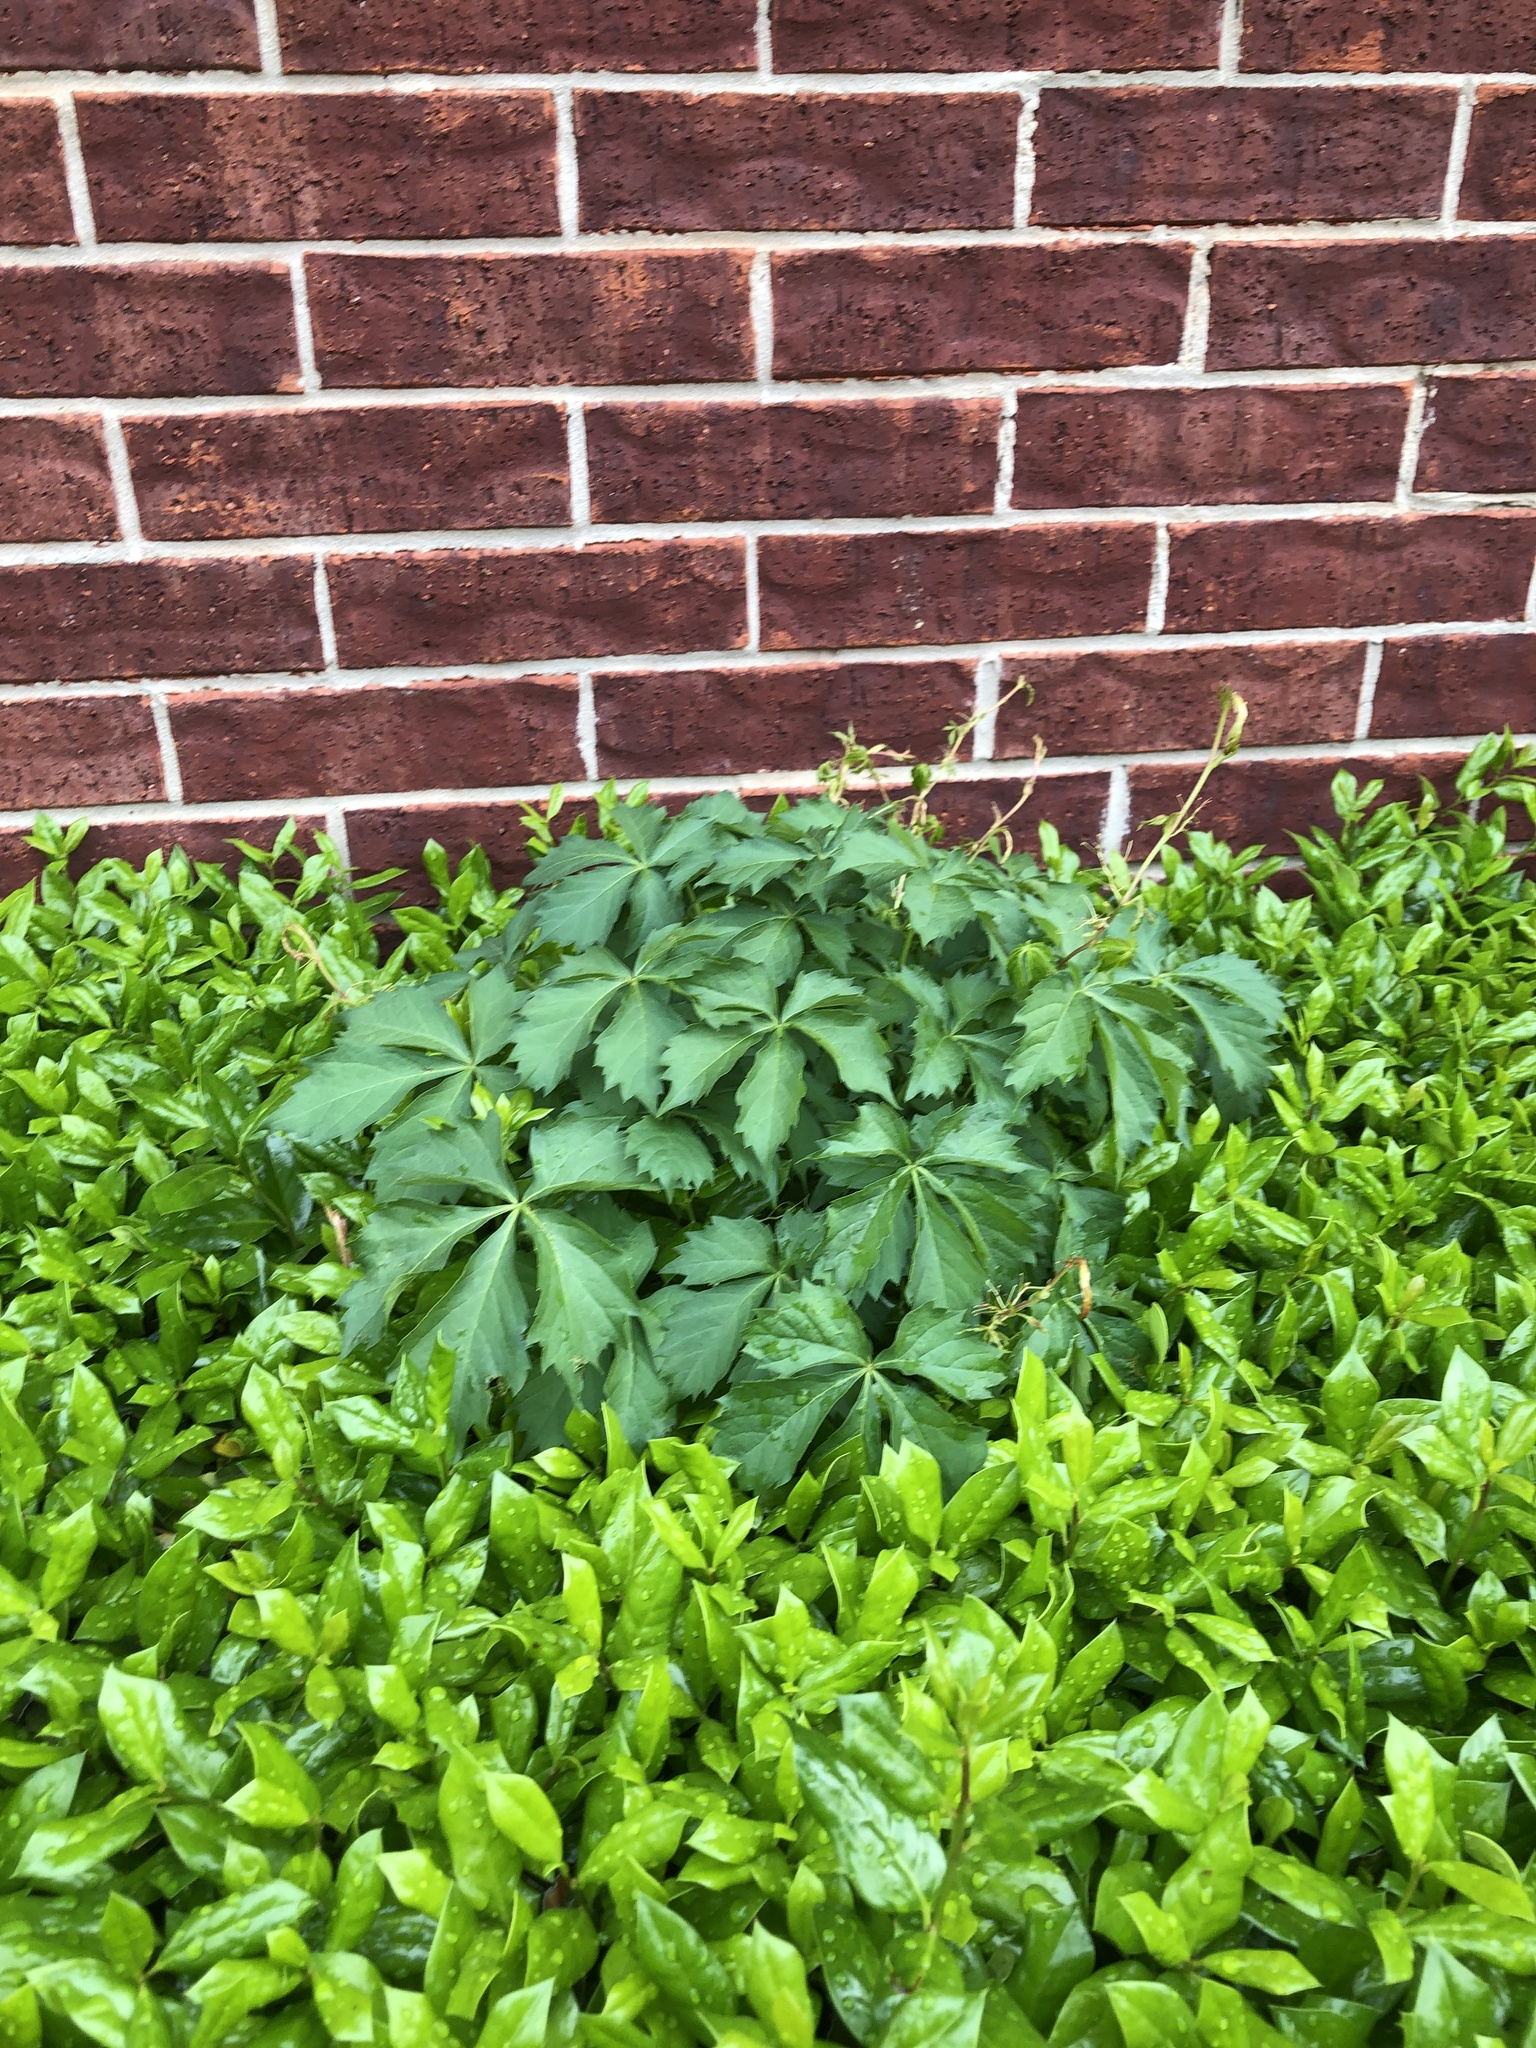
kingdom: Plantae
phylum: Tracheophyta
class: Magnoliopsida
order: Vitales
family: Vitaceae
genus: Parthenocissus
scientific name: Parthenocissus quinquefolia
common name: Virginia-creeper
